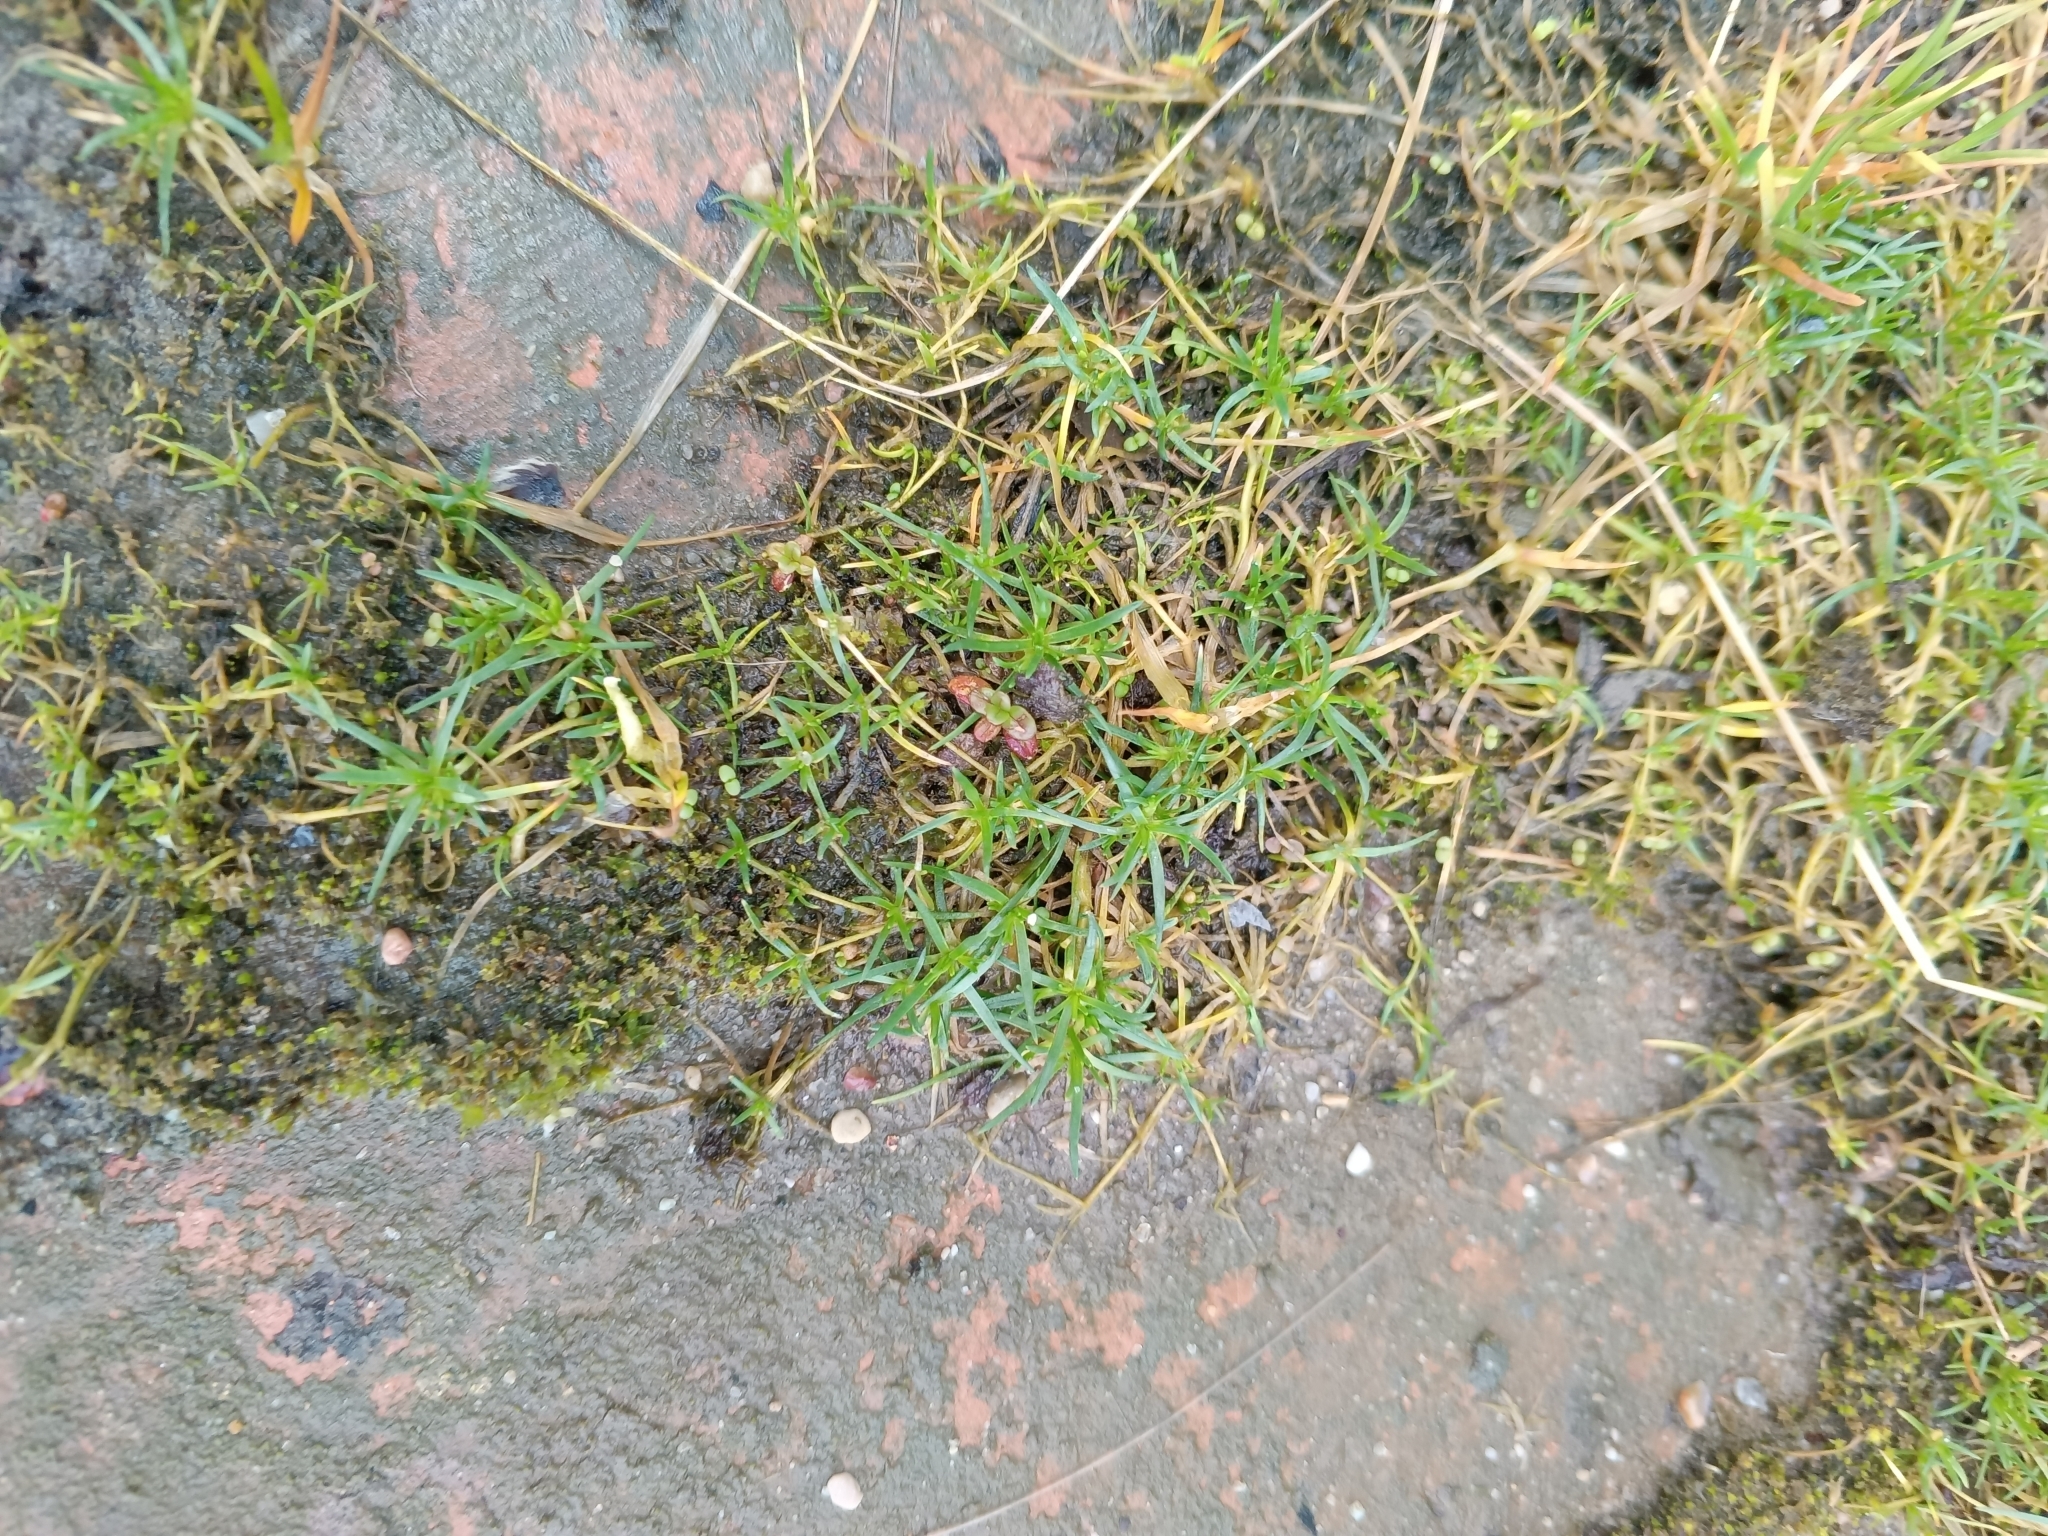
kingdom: Plantae
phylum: Tracheophyta
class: Magnoliopsida
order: Caryophyllales
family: Caryophyllaceae
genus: Sagina
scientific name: Sagina procumbens
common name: Procumbent pearlwort
